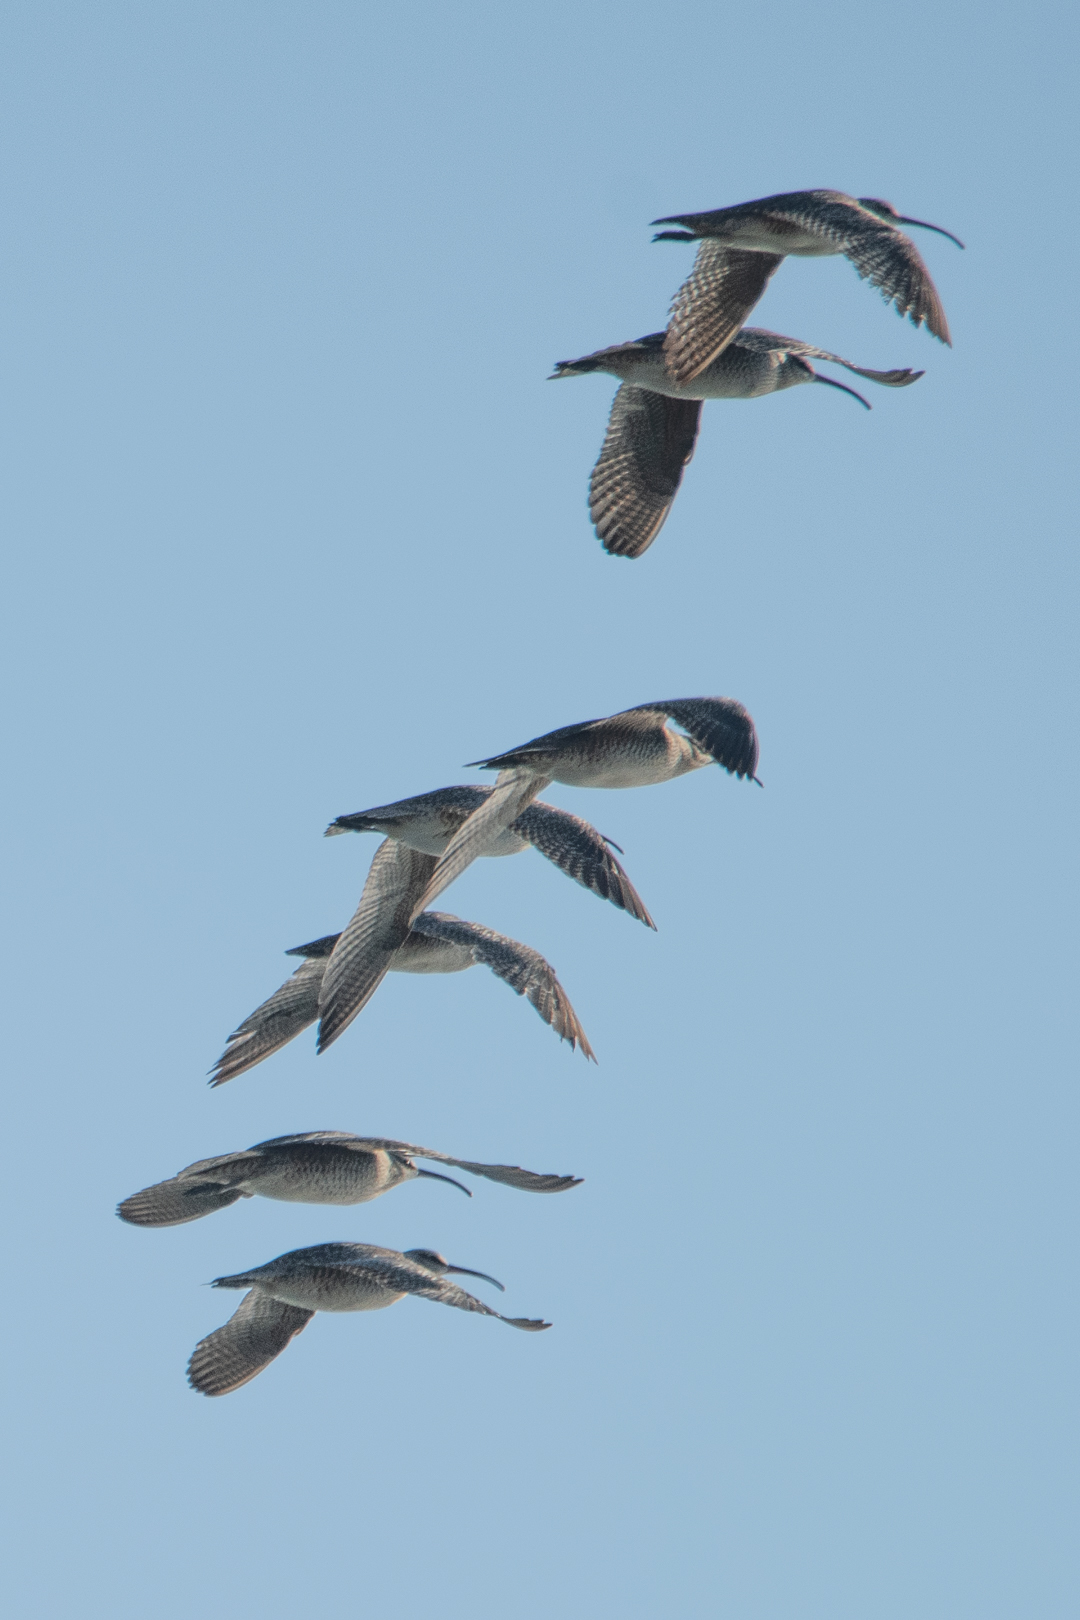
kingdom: Animalia
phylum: Chordata
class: Aves
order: Charadriiformes
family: Scolopacidae
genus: Numenius
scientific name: Numenius phaeopus
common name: Whimbrel
